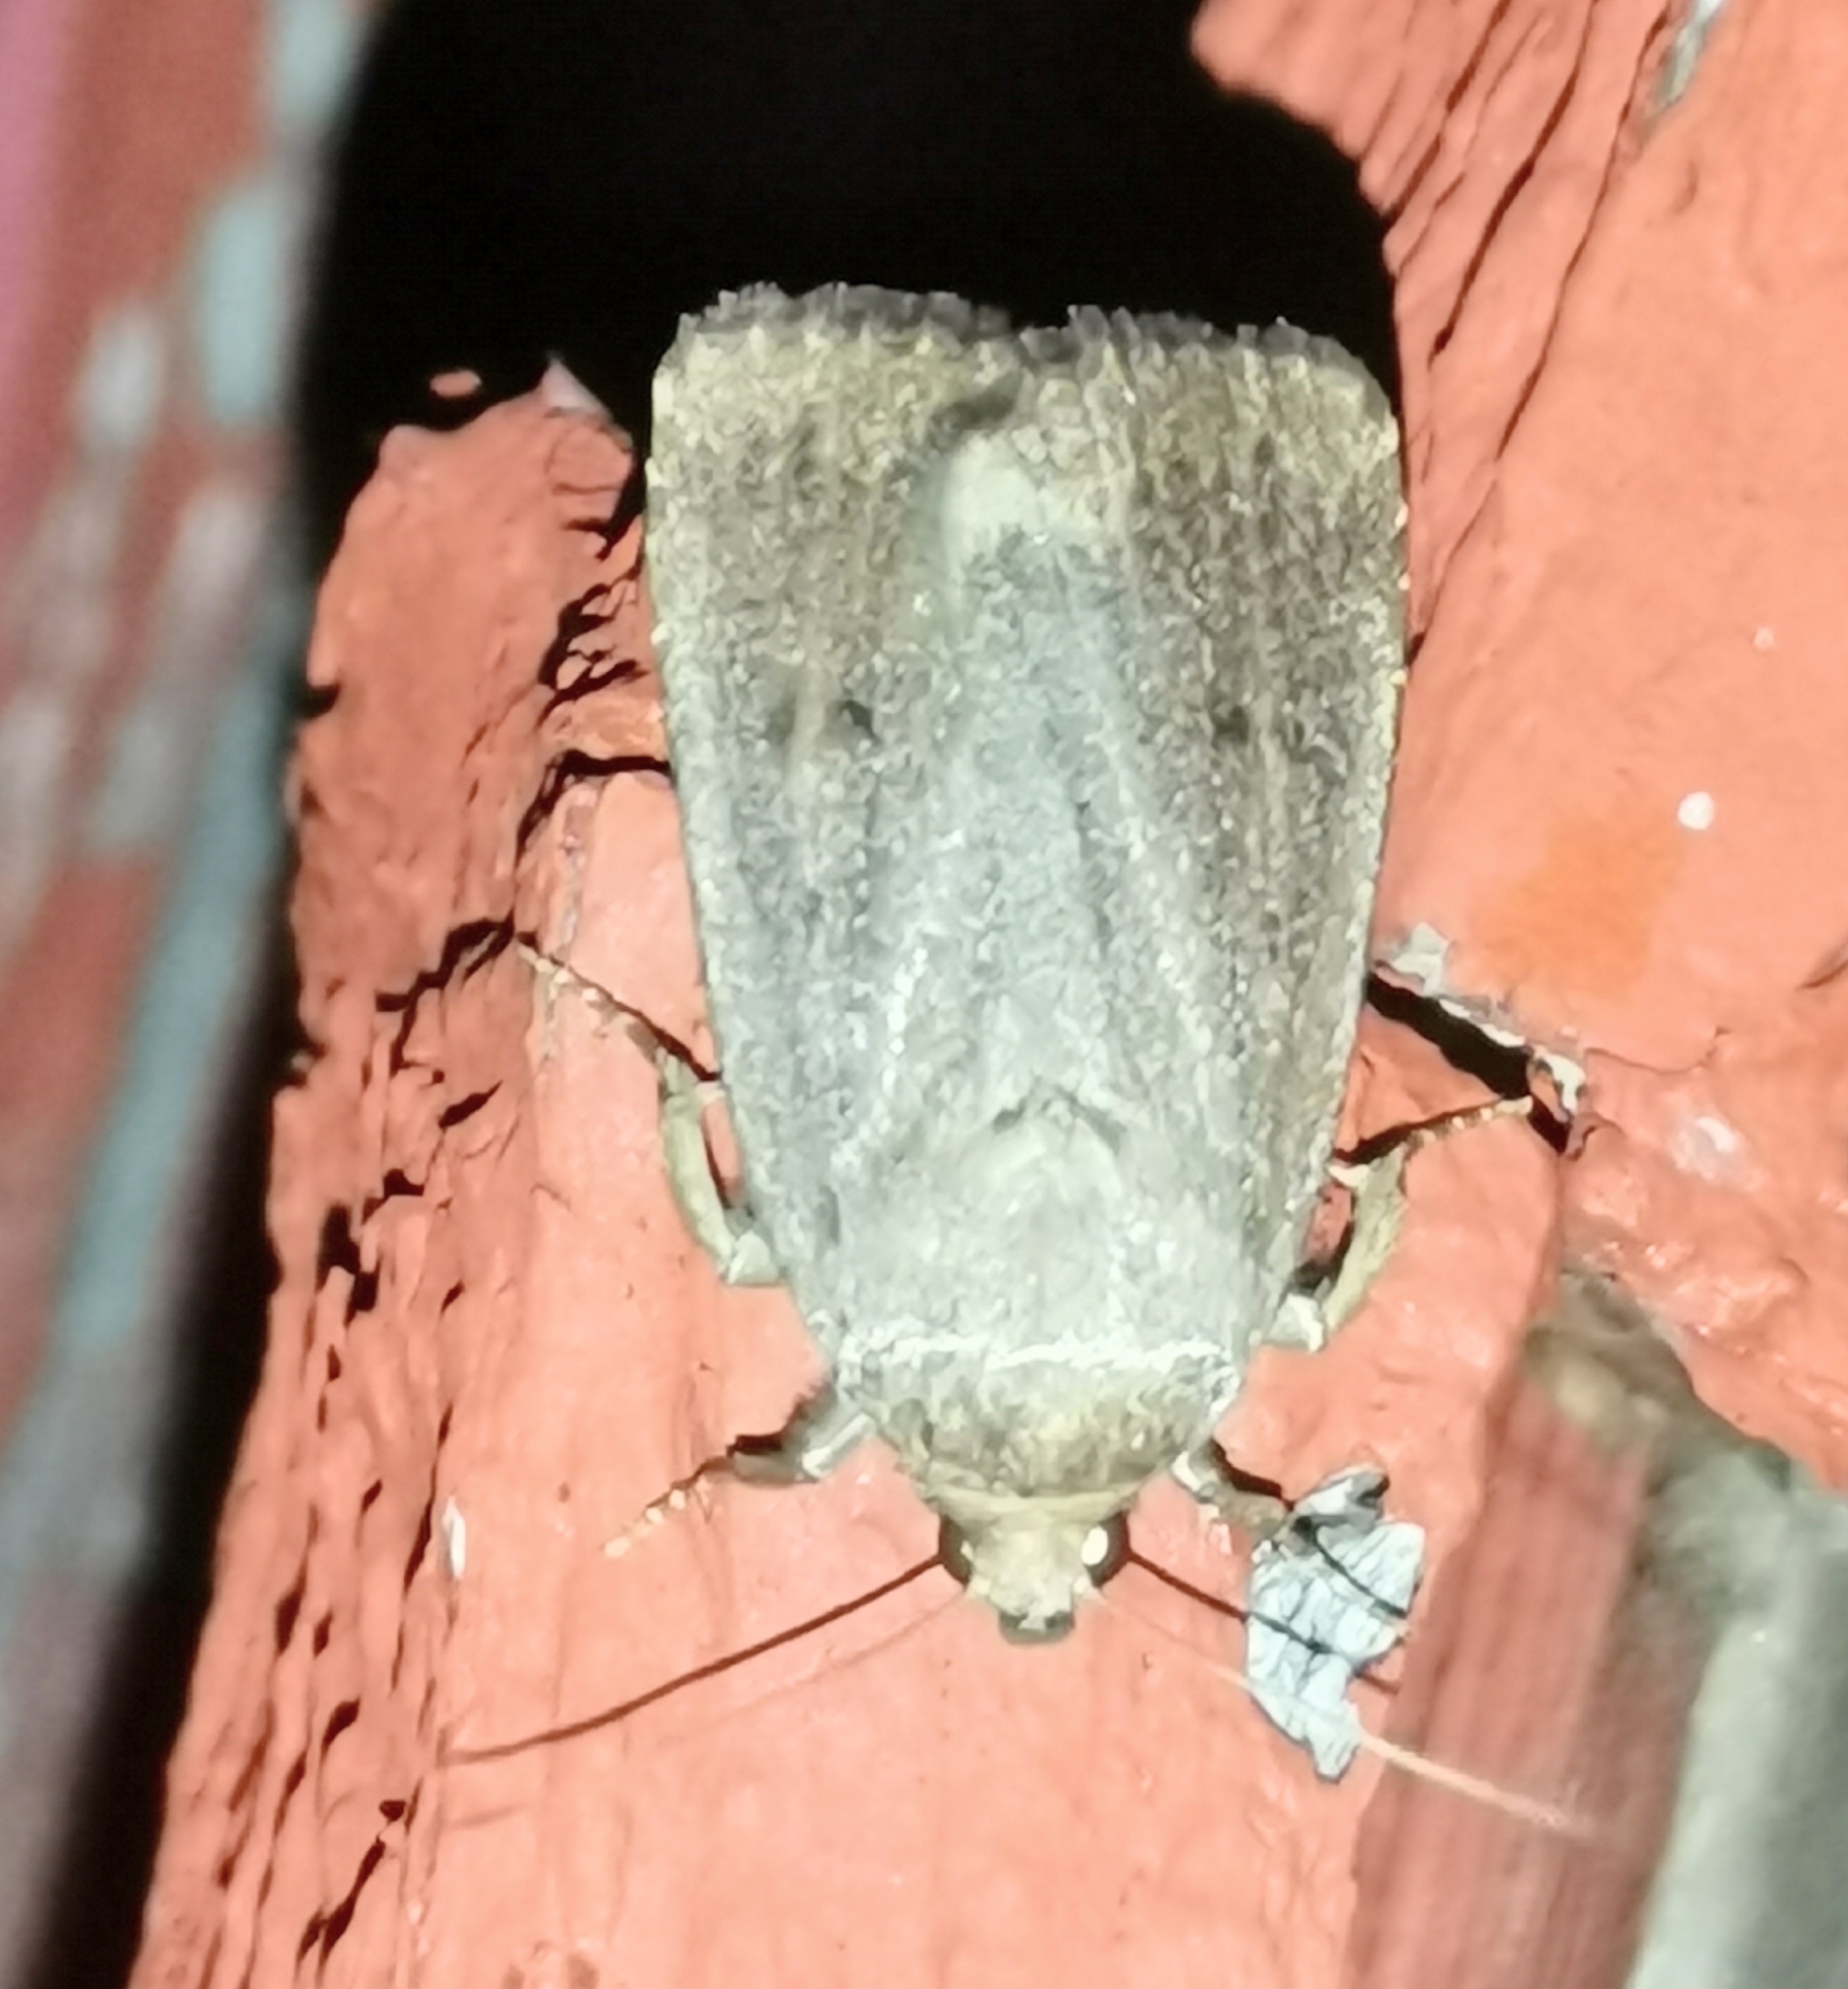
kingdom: Animalia
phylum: Arthropoda
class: Insecta
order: Lepidoptera
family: Noctuidae
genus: Amphipyra
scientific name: Amphipyra tragopoginis
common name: Mouse moth
